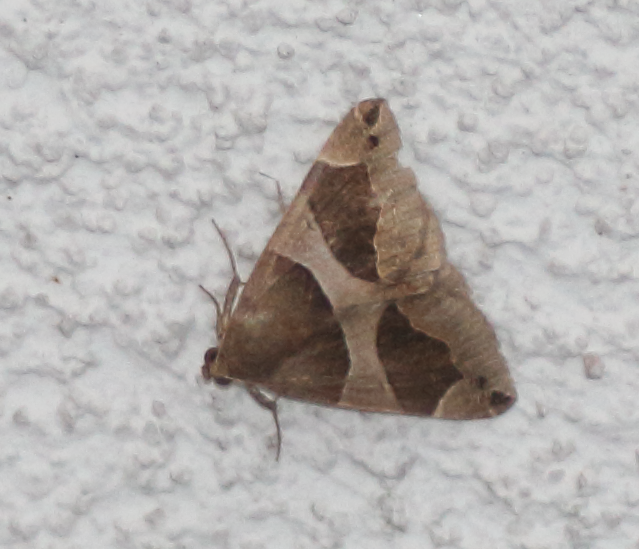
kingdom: Animalia
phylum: Arthropoda
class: Insecta
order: Lepidoptera
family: Erebidae
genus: Dysgonia
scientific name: Dysgonia algira
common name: Passenger
